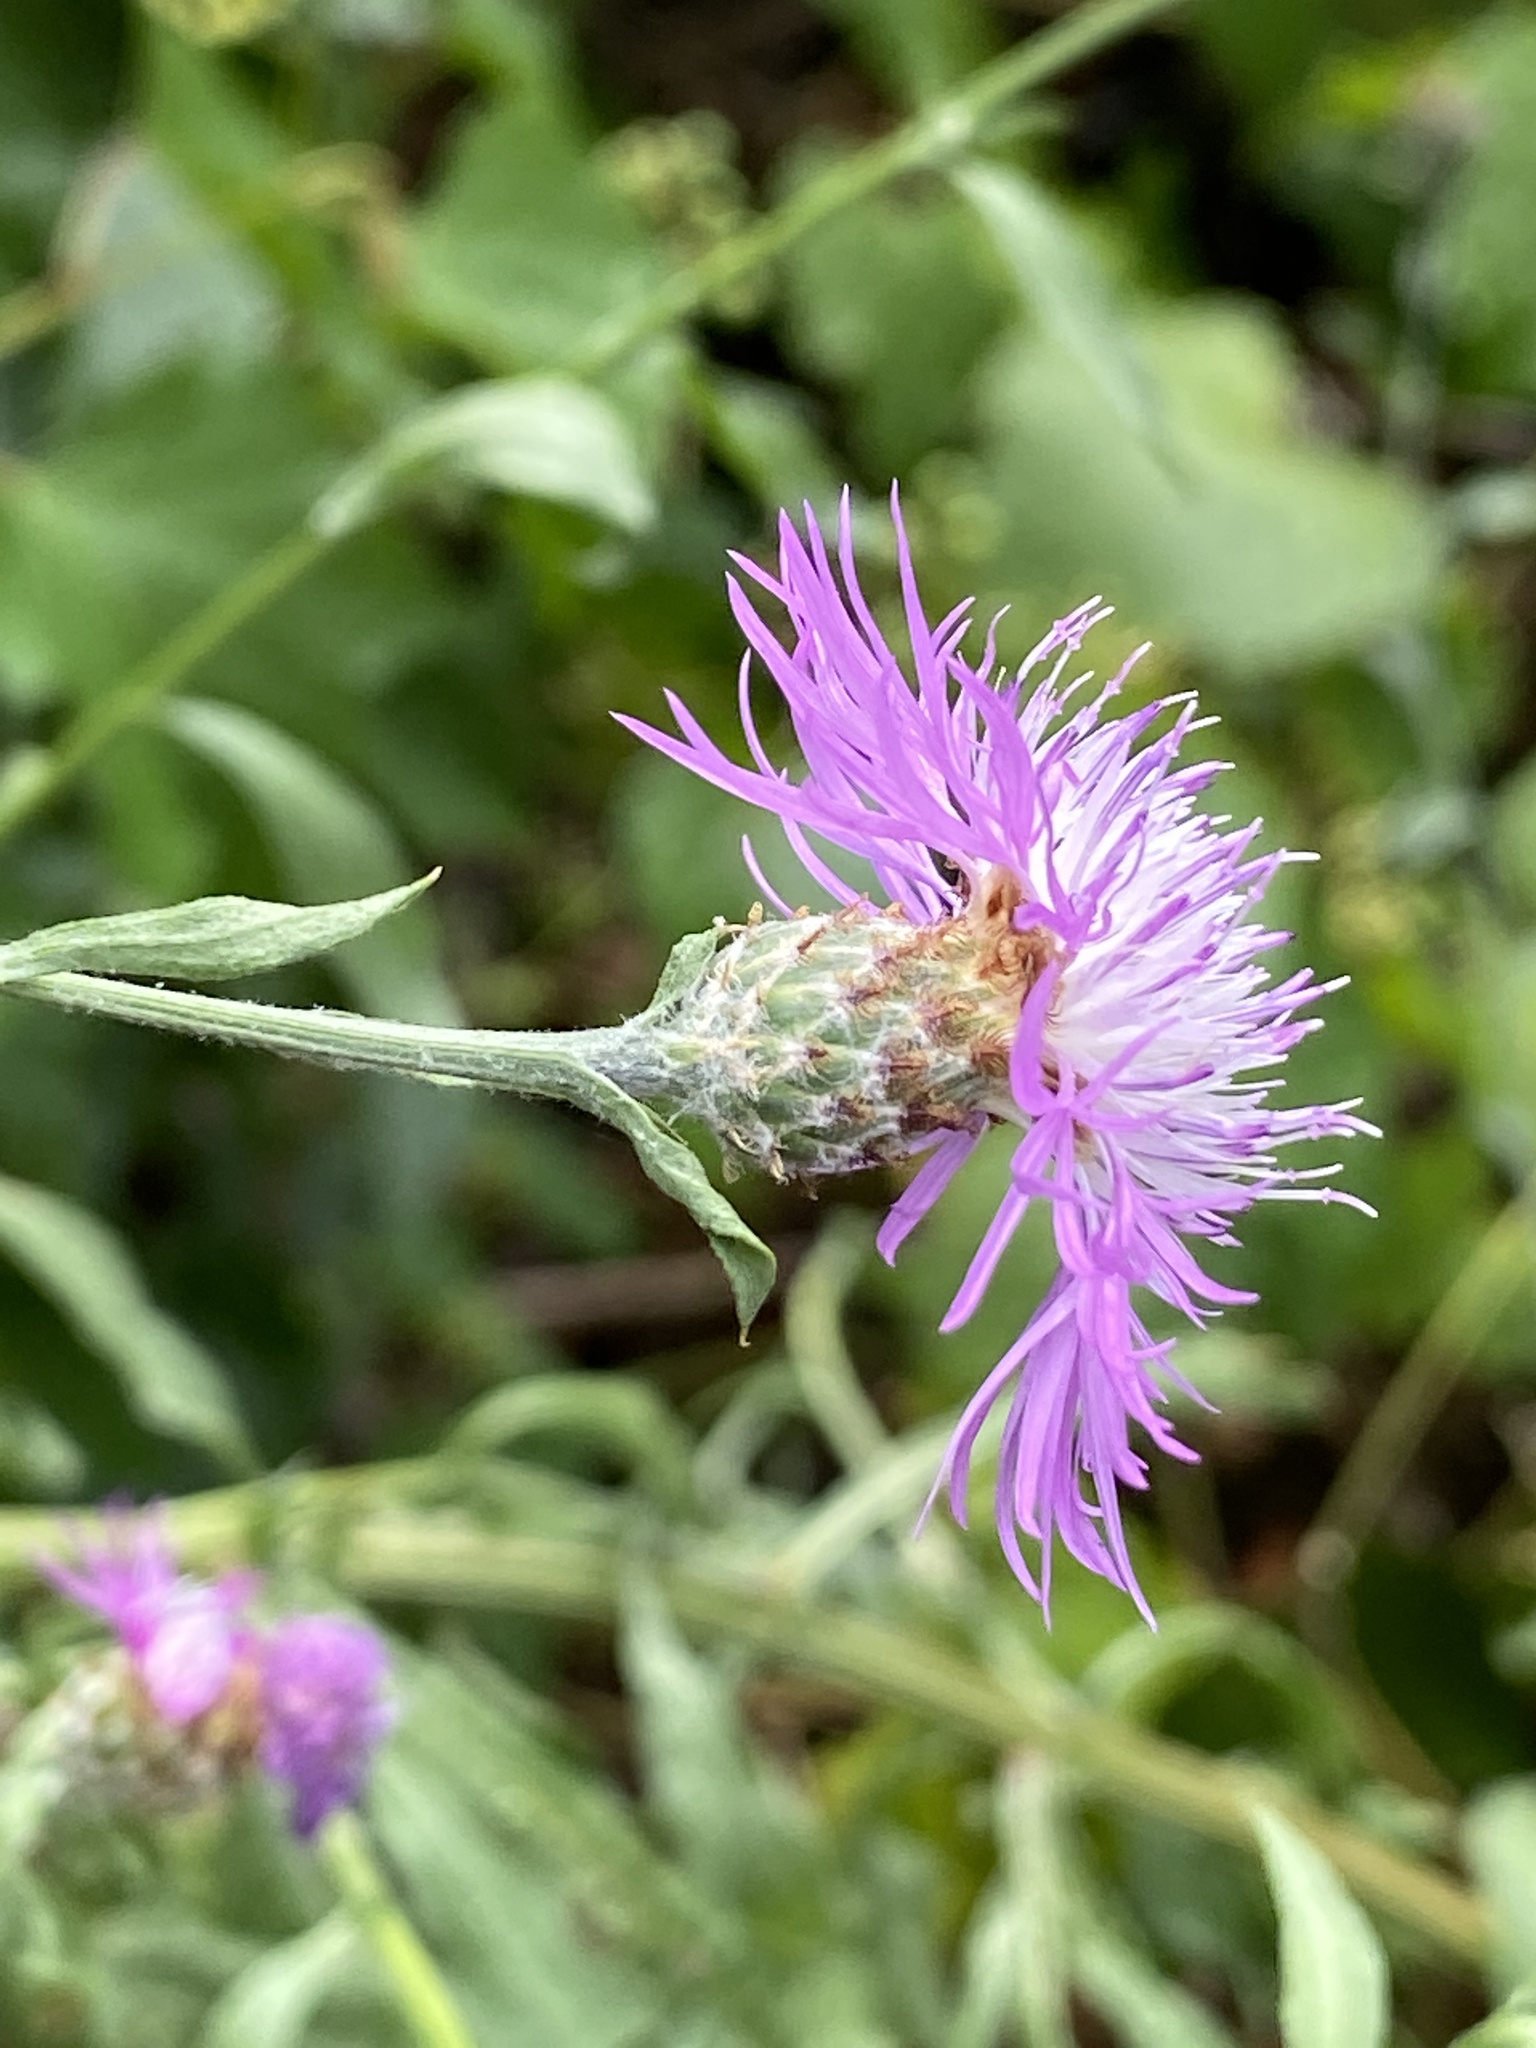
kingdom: Plantae
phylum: Tracheophyta
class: Magnoliopsida
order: Asterales
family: Asteraceae
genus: Centaurea
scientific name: Centaurea nigrescens
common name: Tyrol knapweed
